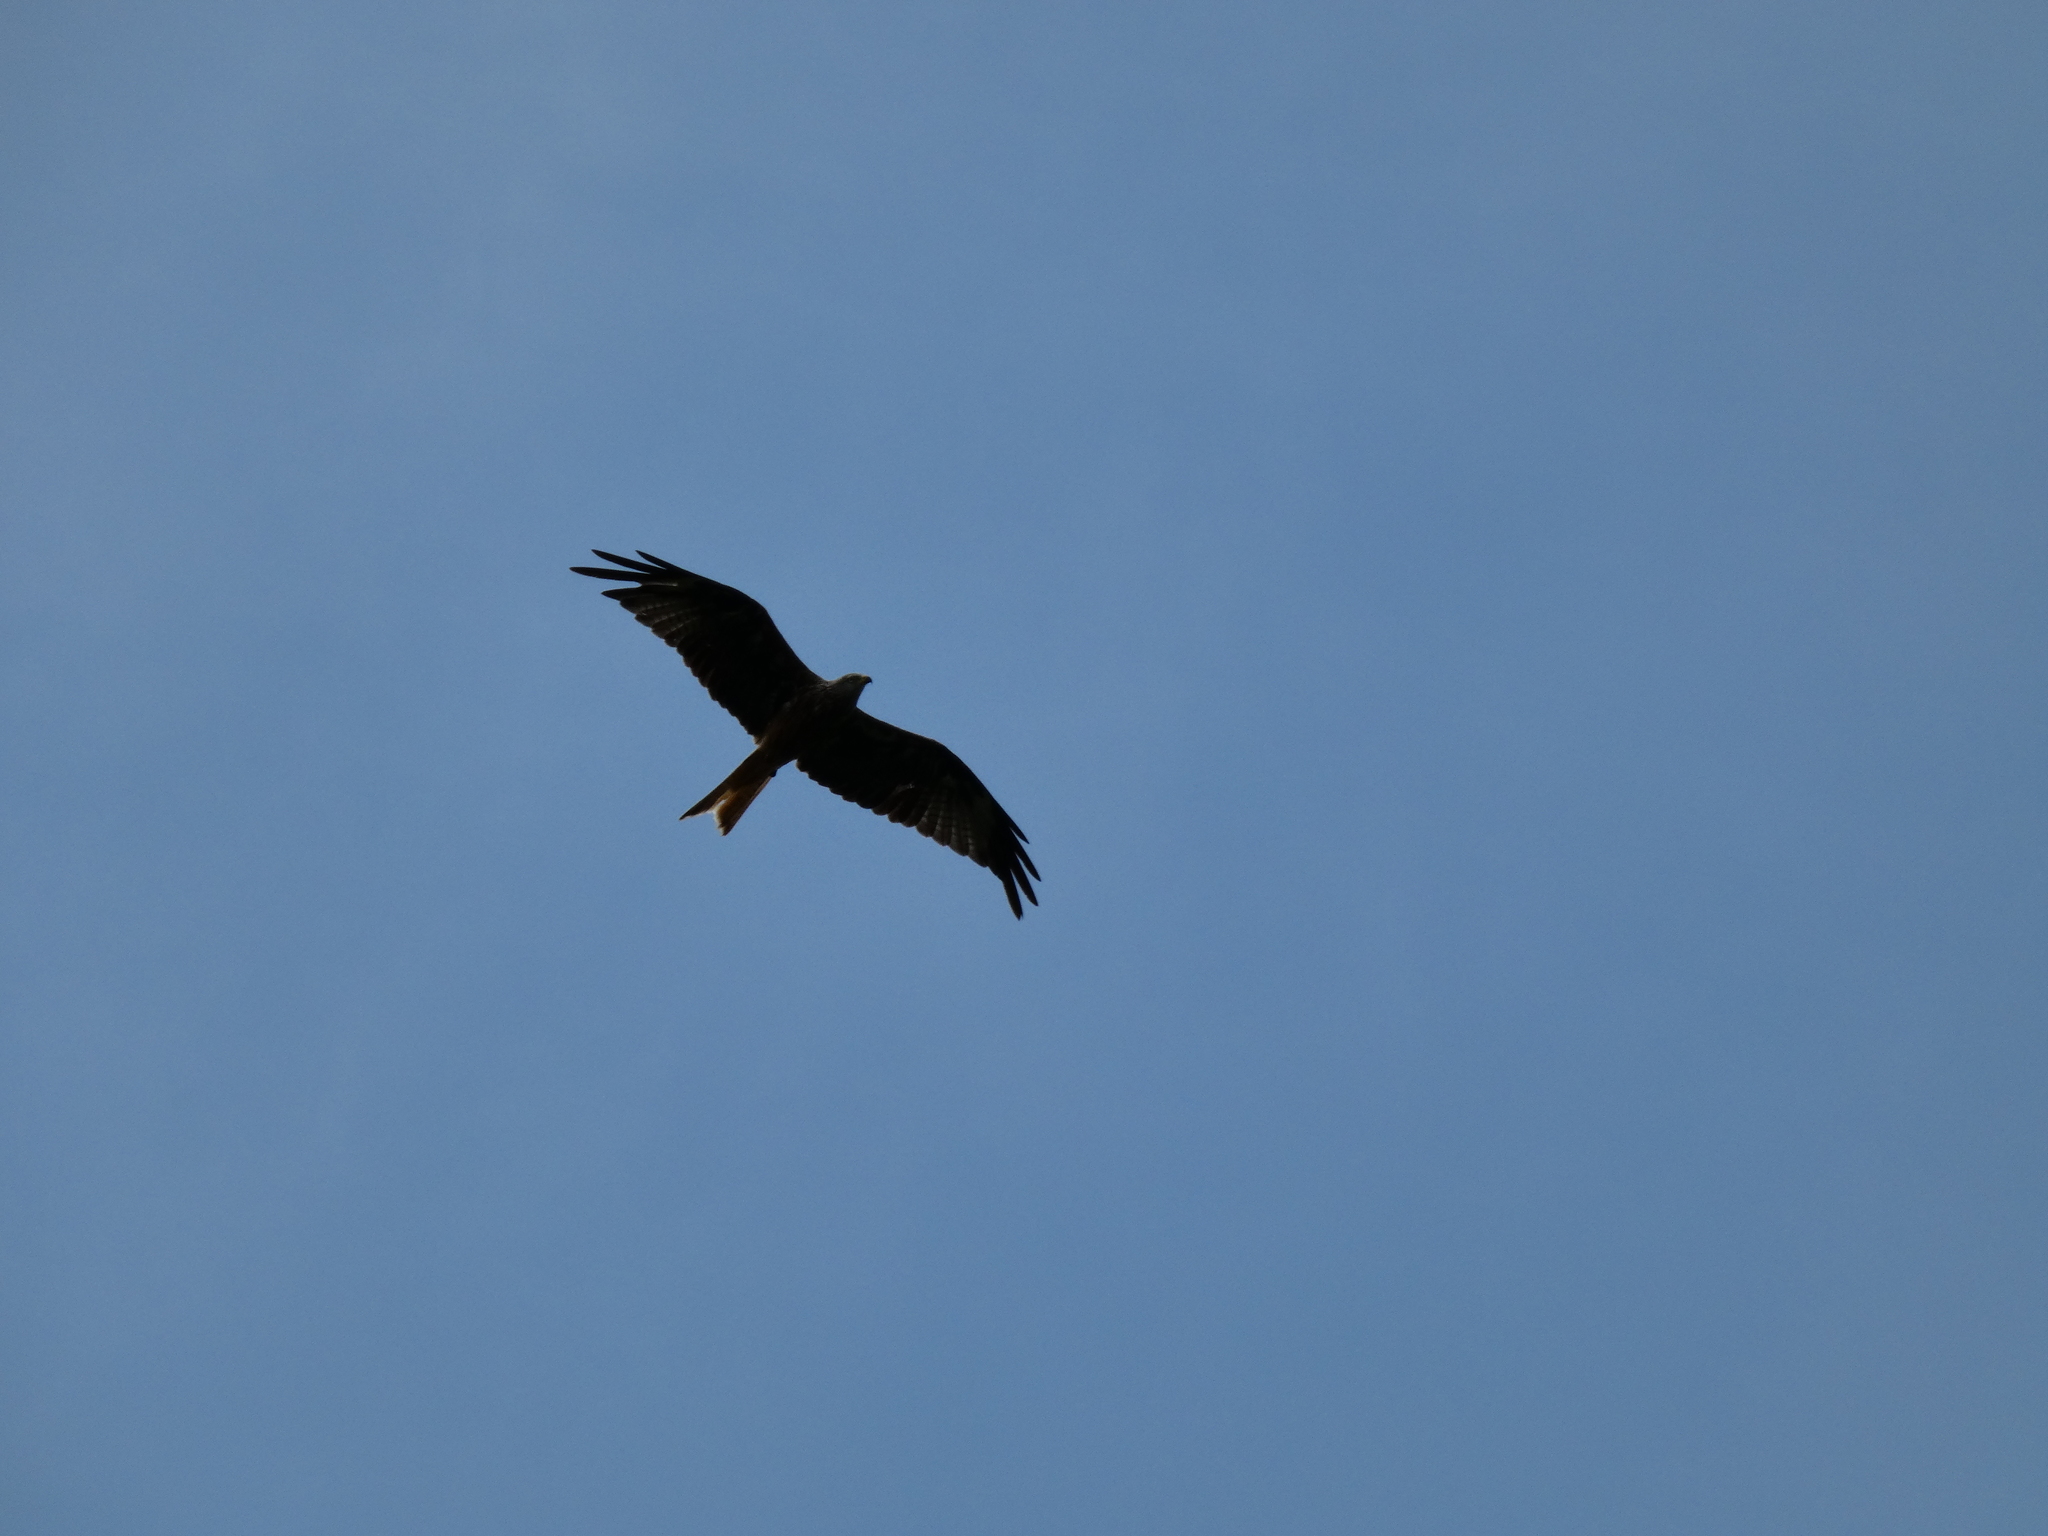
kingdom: Animalia
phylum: Chordata
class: Aves
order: Accipitriformes
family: Accipitridae
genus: Milvus
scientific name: Milvus milvus
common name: Red kite
